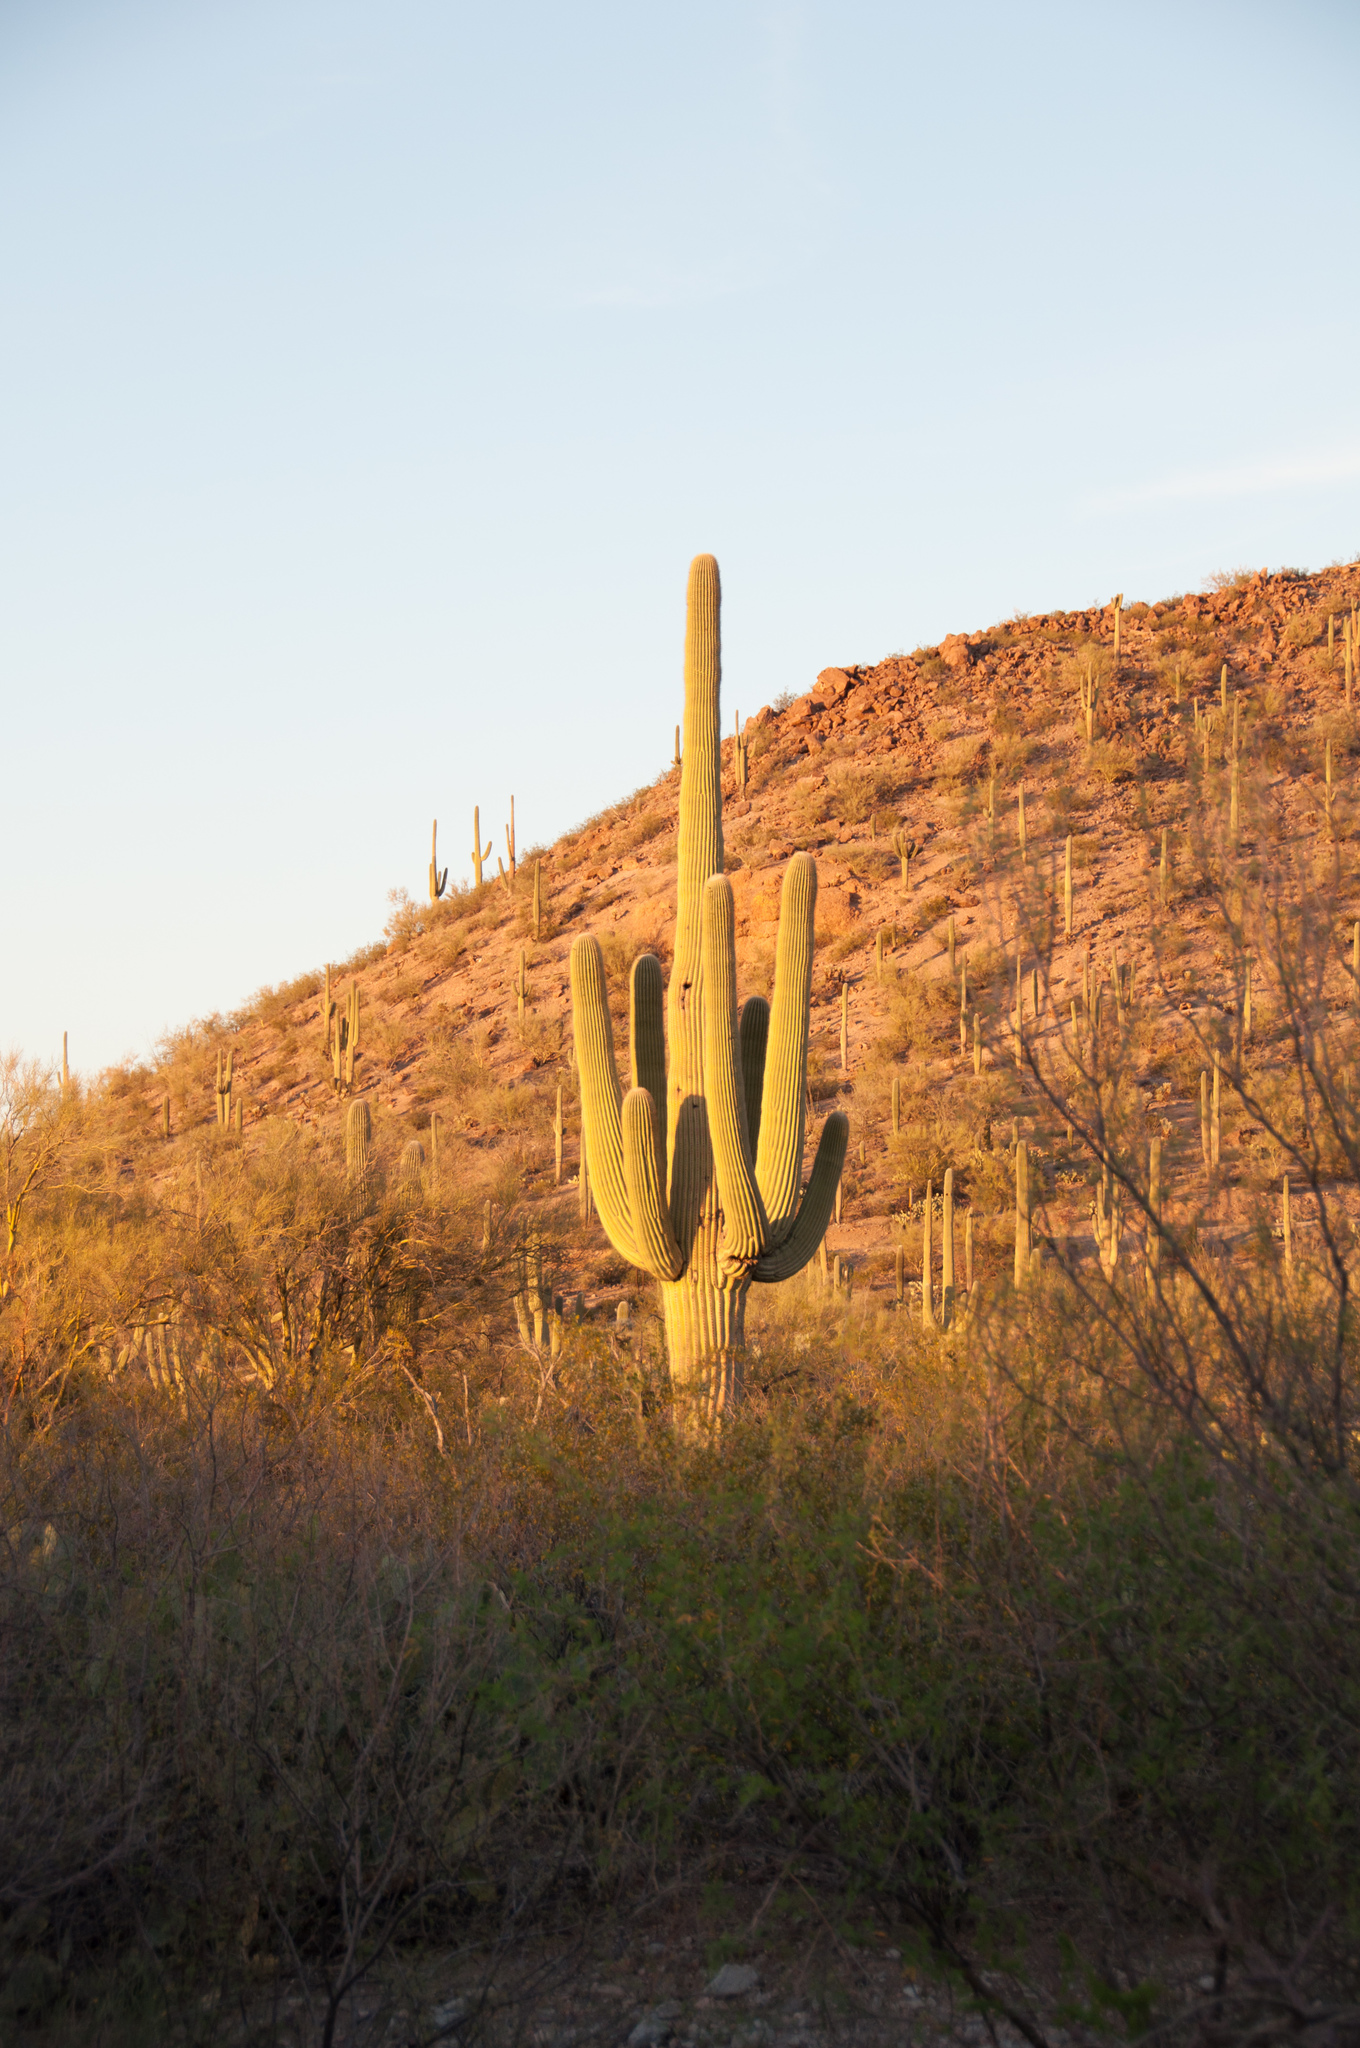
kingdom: Plantae
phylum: Tracheophyta
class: Magnoliopsida
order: Caryophyllales
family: Cactaceae
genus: Carnegiea
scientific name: Carnegiea gigantea
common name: Saguaro
